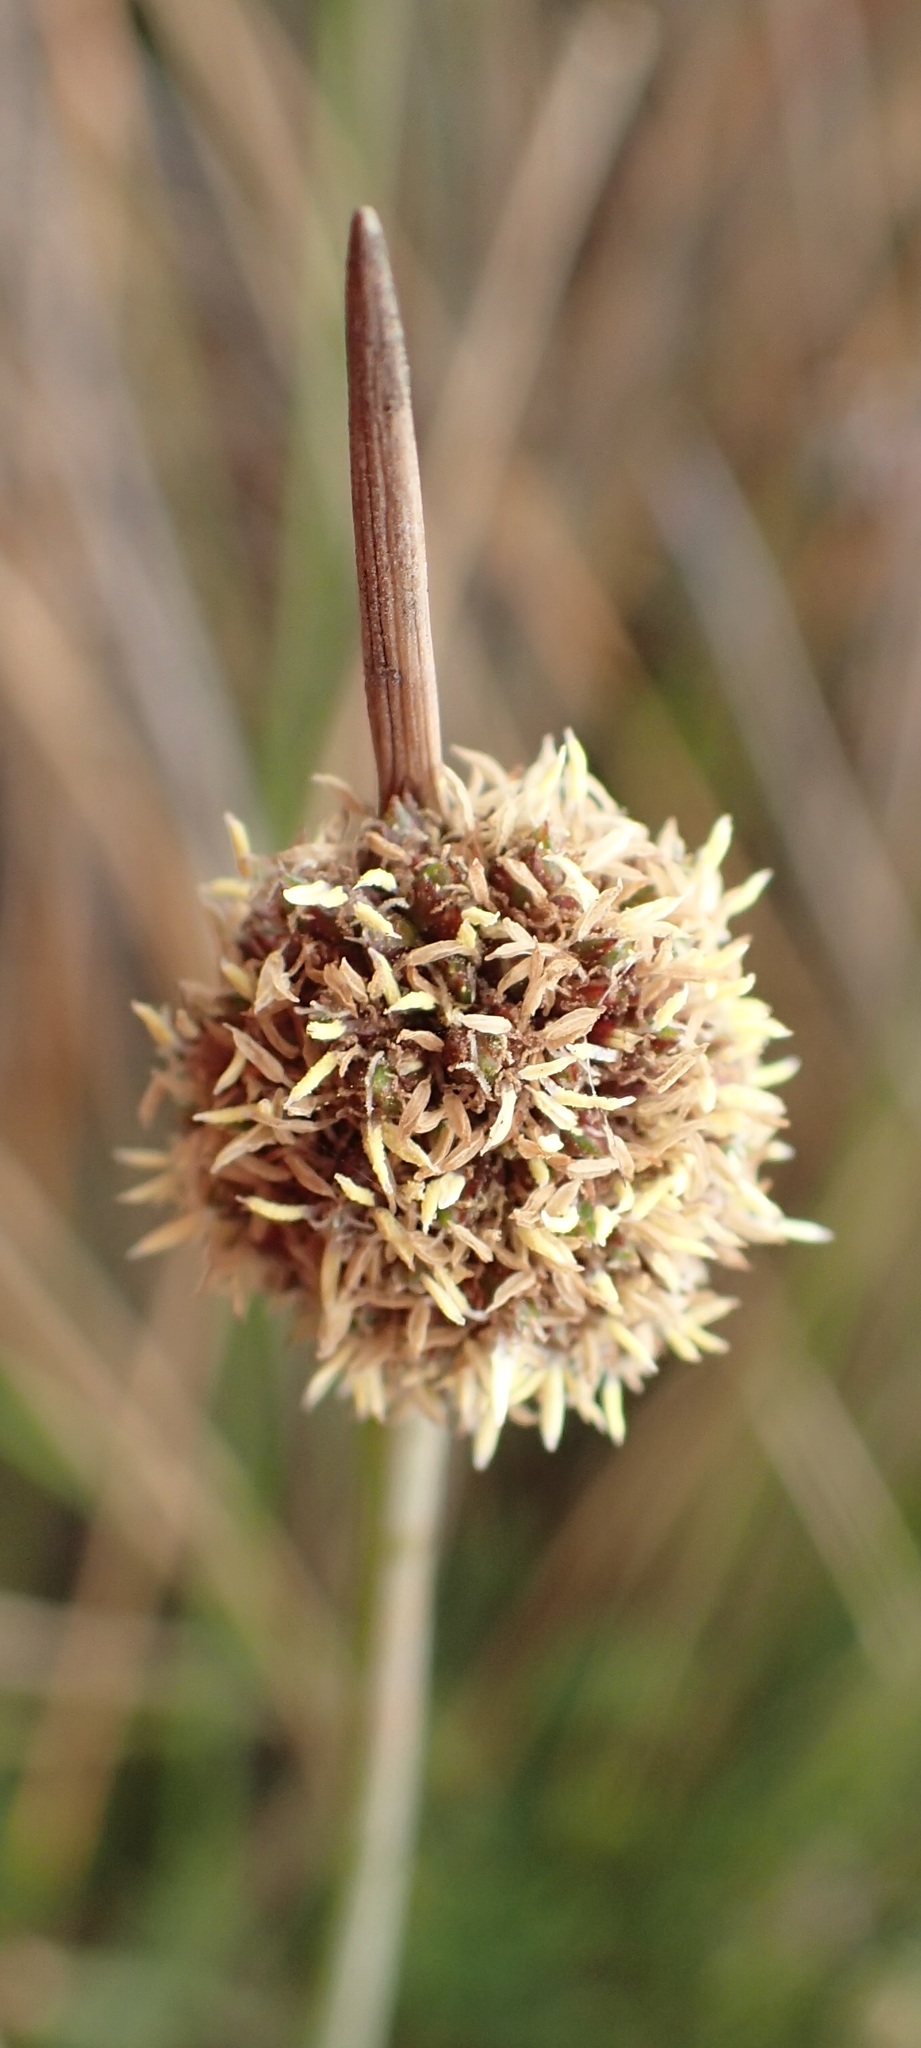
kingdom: Plantae
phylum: Tracheophyta
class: Liliopsida
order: Poales
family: Cyperaceae
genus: Ficinia
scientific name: Ficinia nodosa
